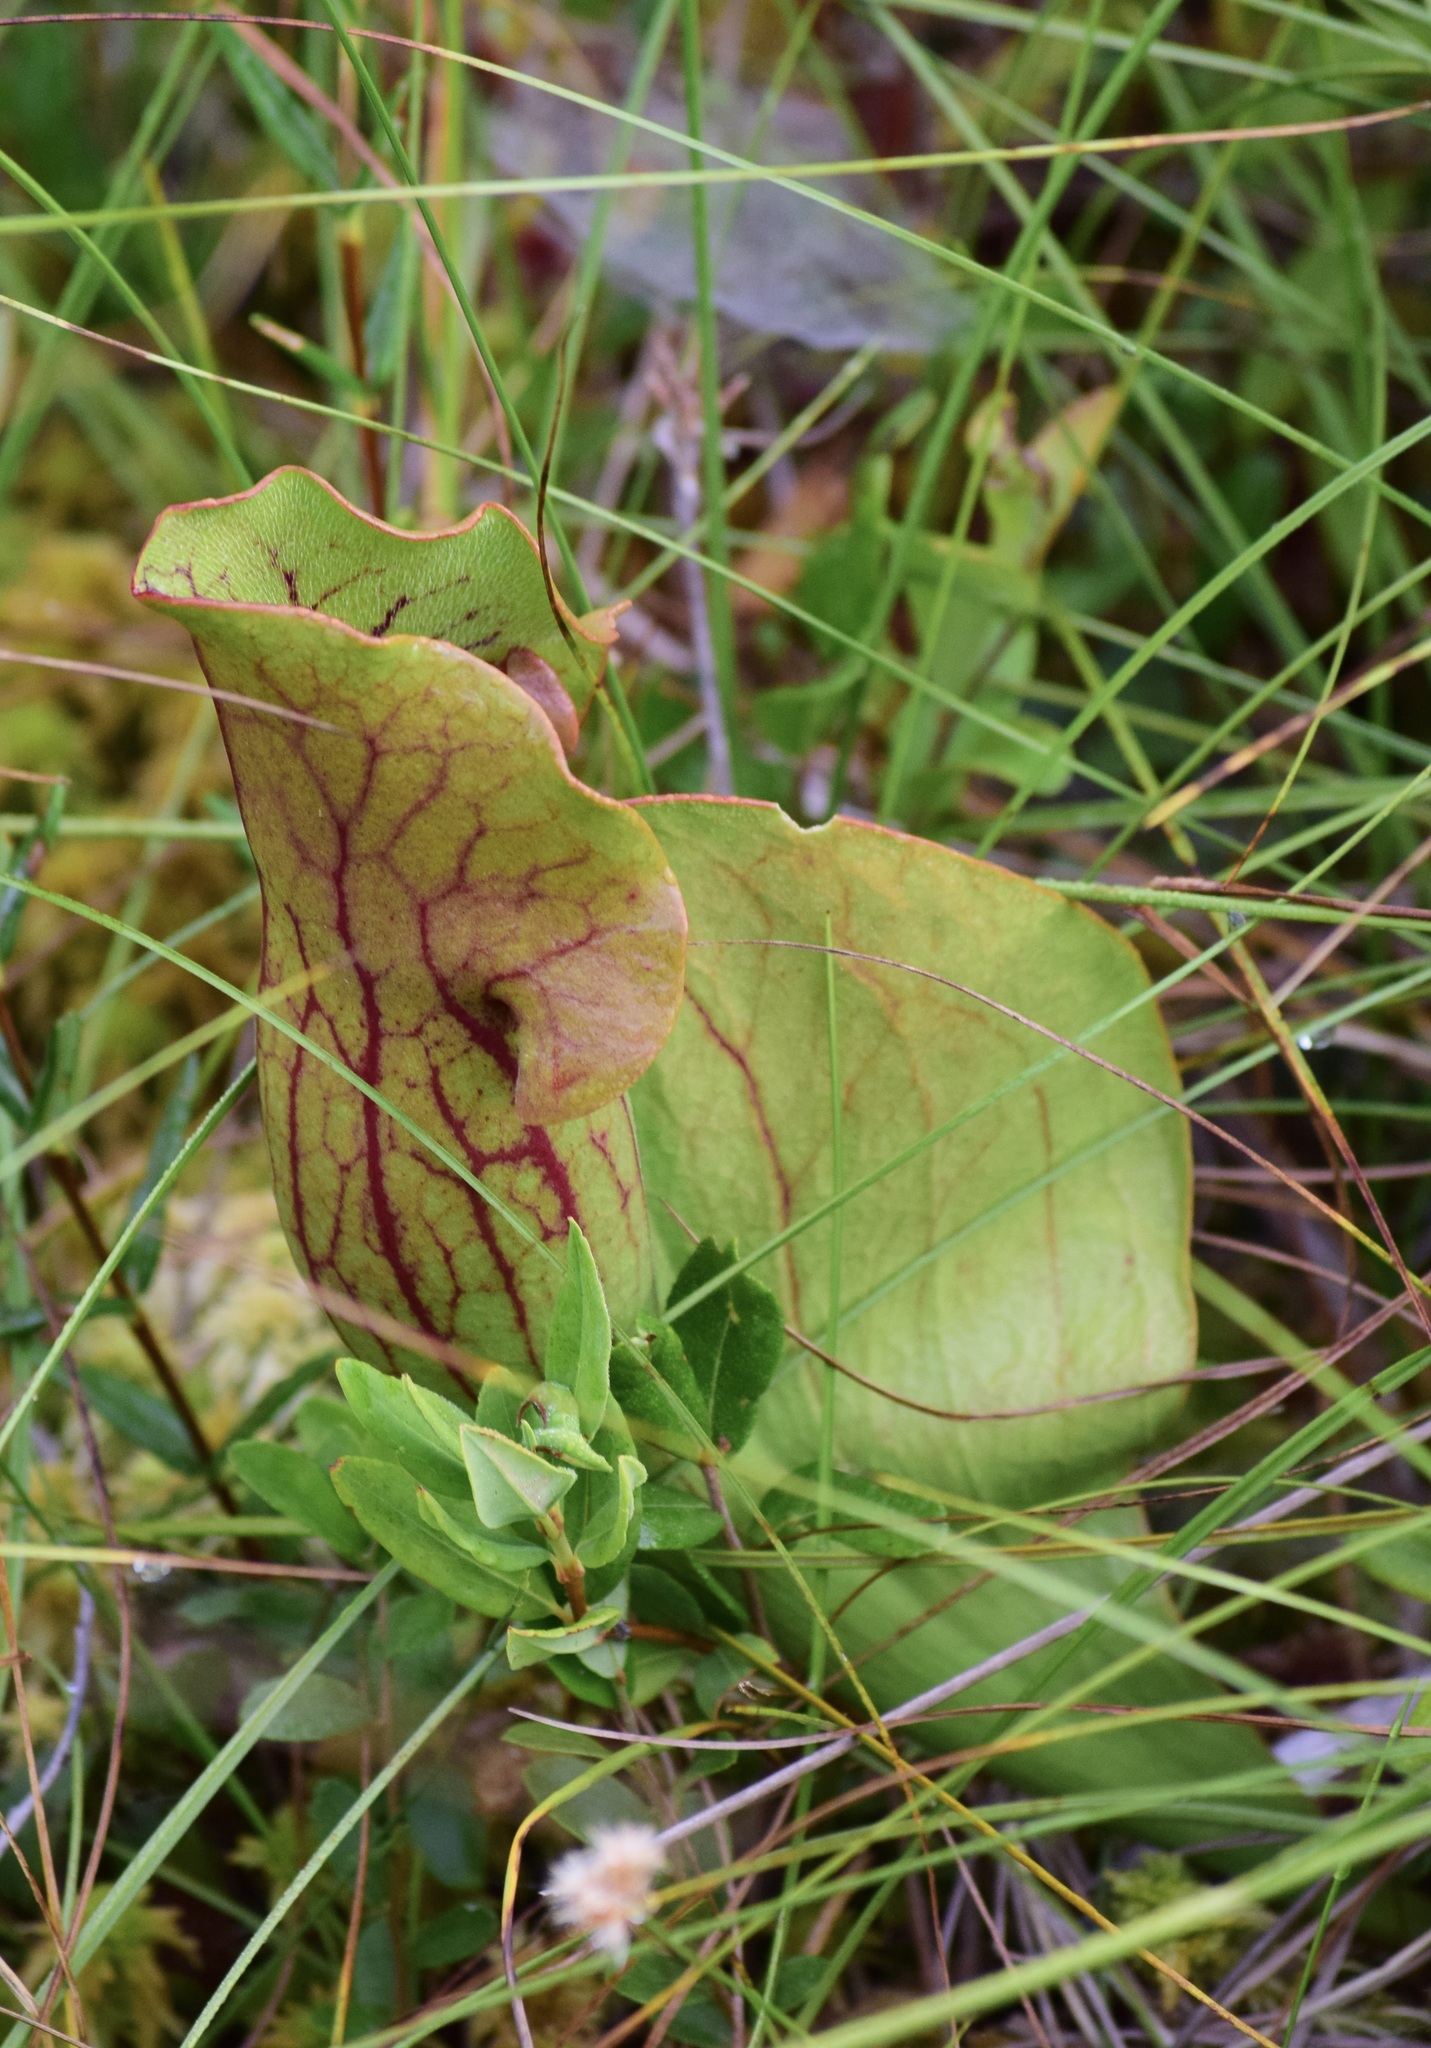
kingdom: Plantae
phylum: Tracheophyta
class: Magnoliopsida
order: Ericales
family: Sarraceniaceae
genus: Sarracenia
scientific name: Sarracenia purpurea
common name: Pitcherplant
